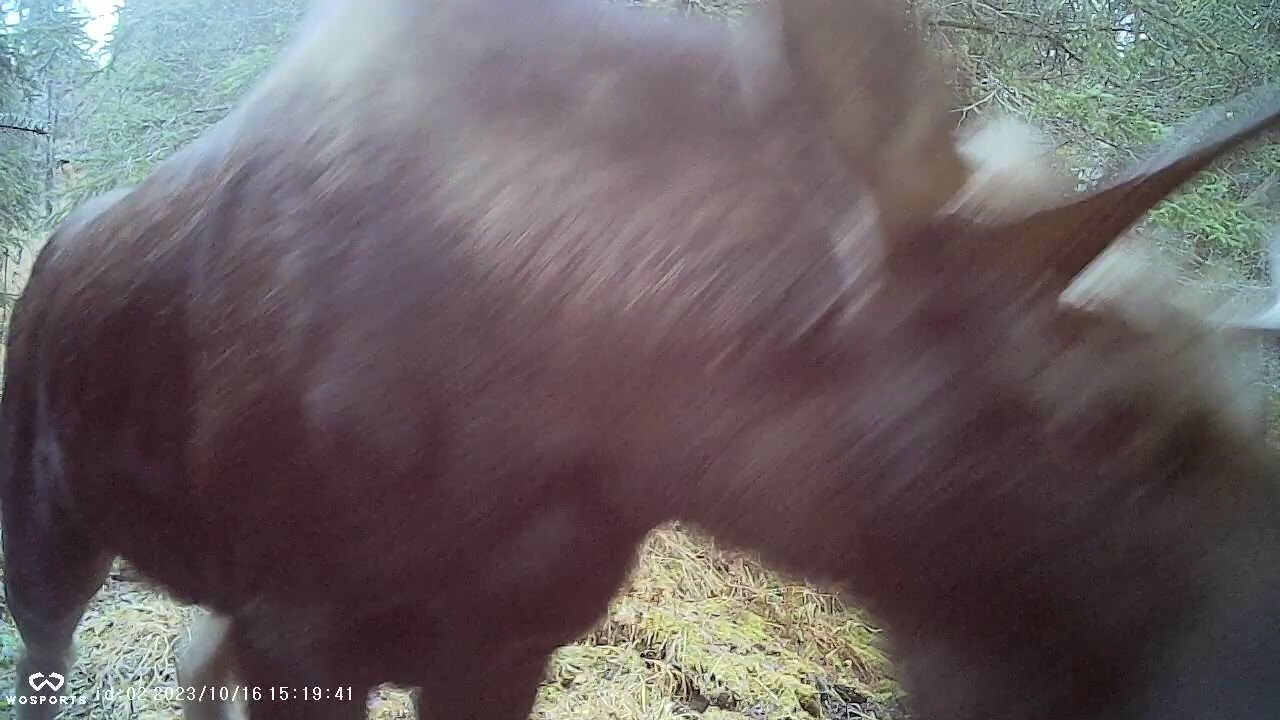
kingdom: Animalia
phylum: Chordata
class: Mammalia
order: Artiodactyla
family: Cervidae
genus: Alces
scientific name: Alces alces
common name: Moose
